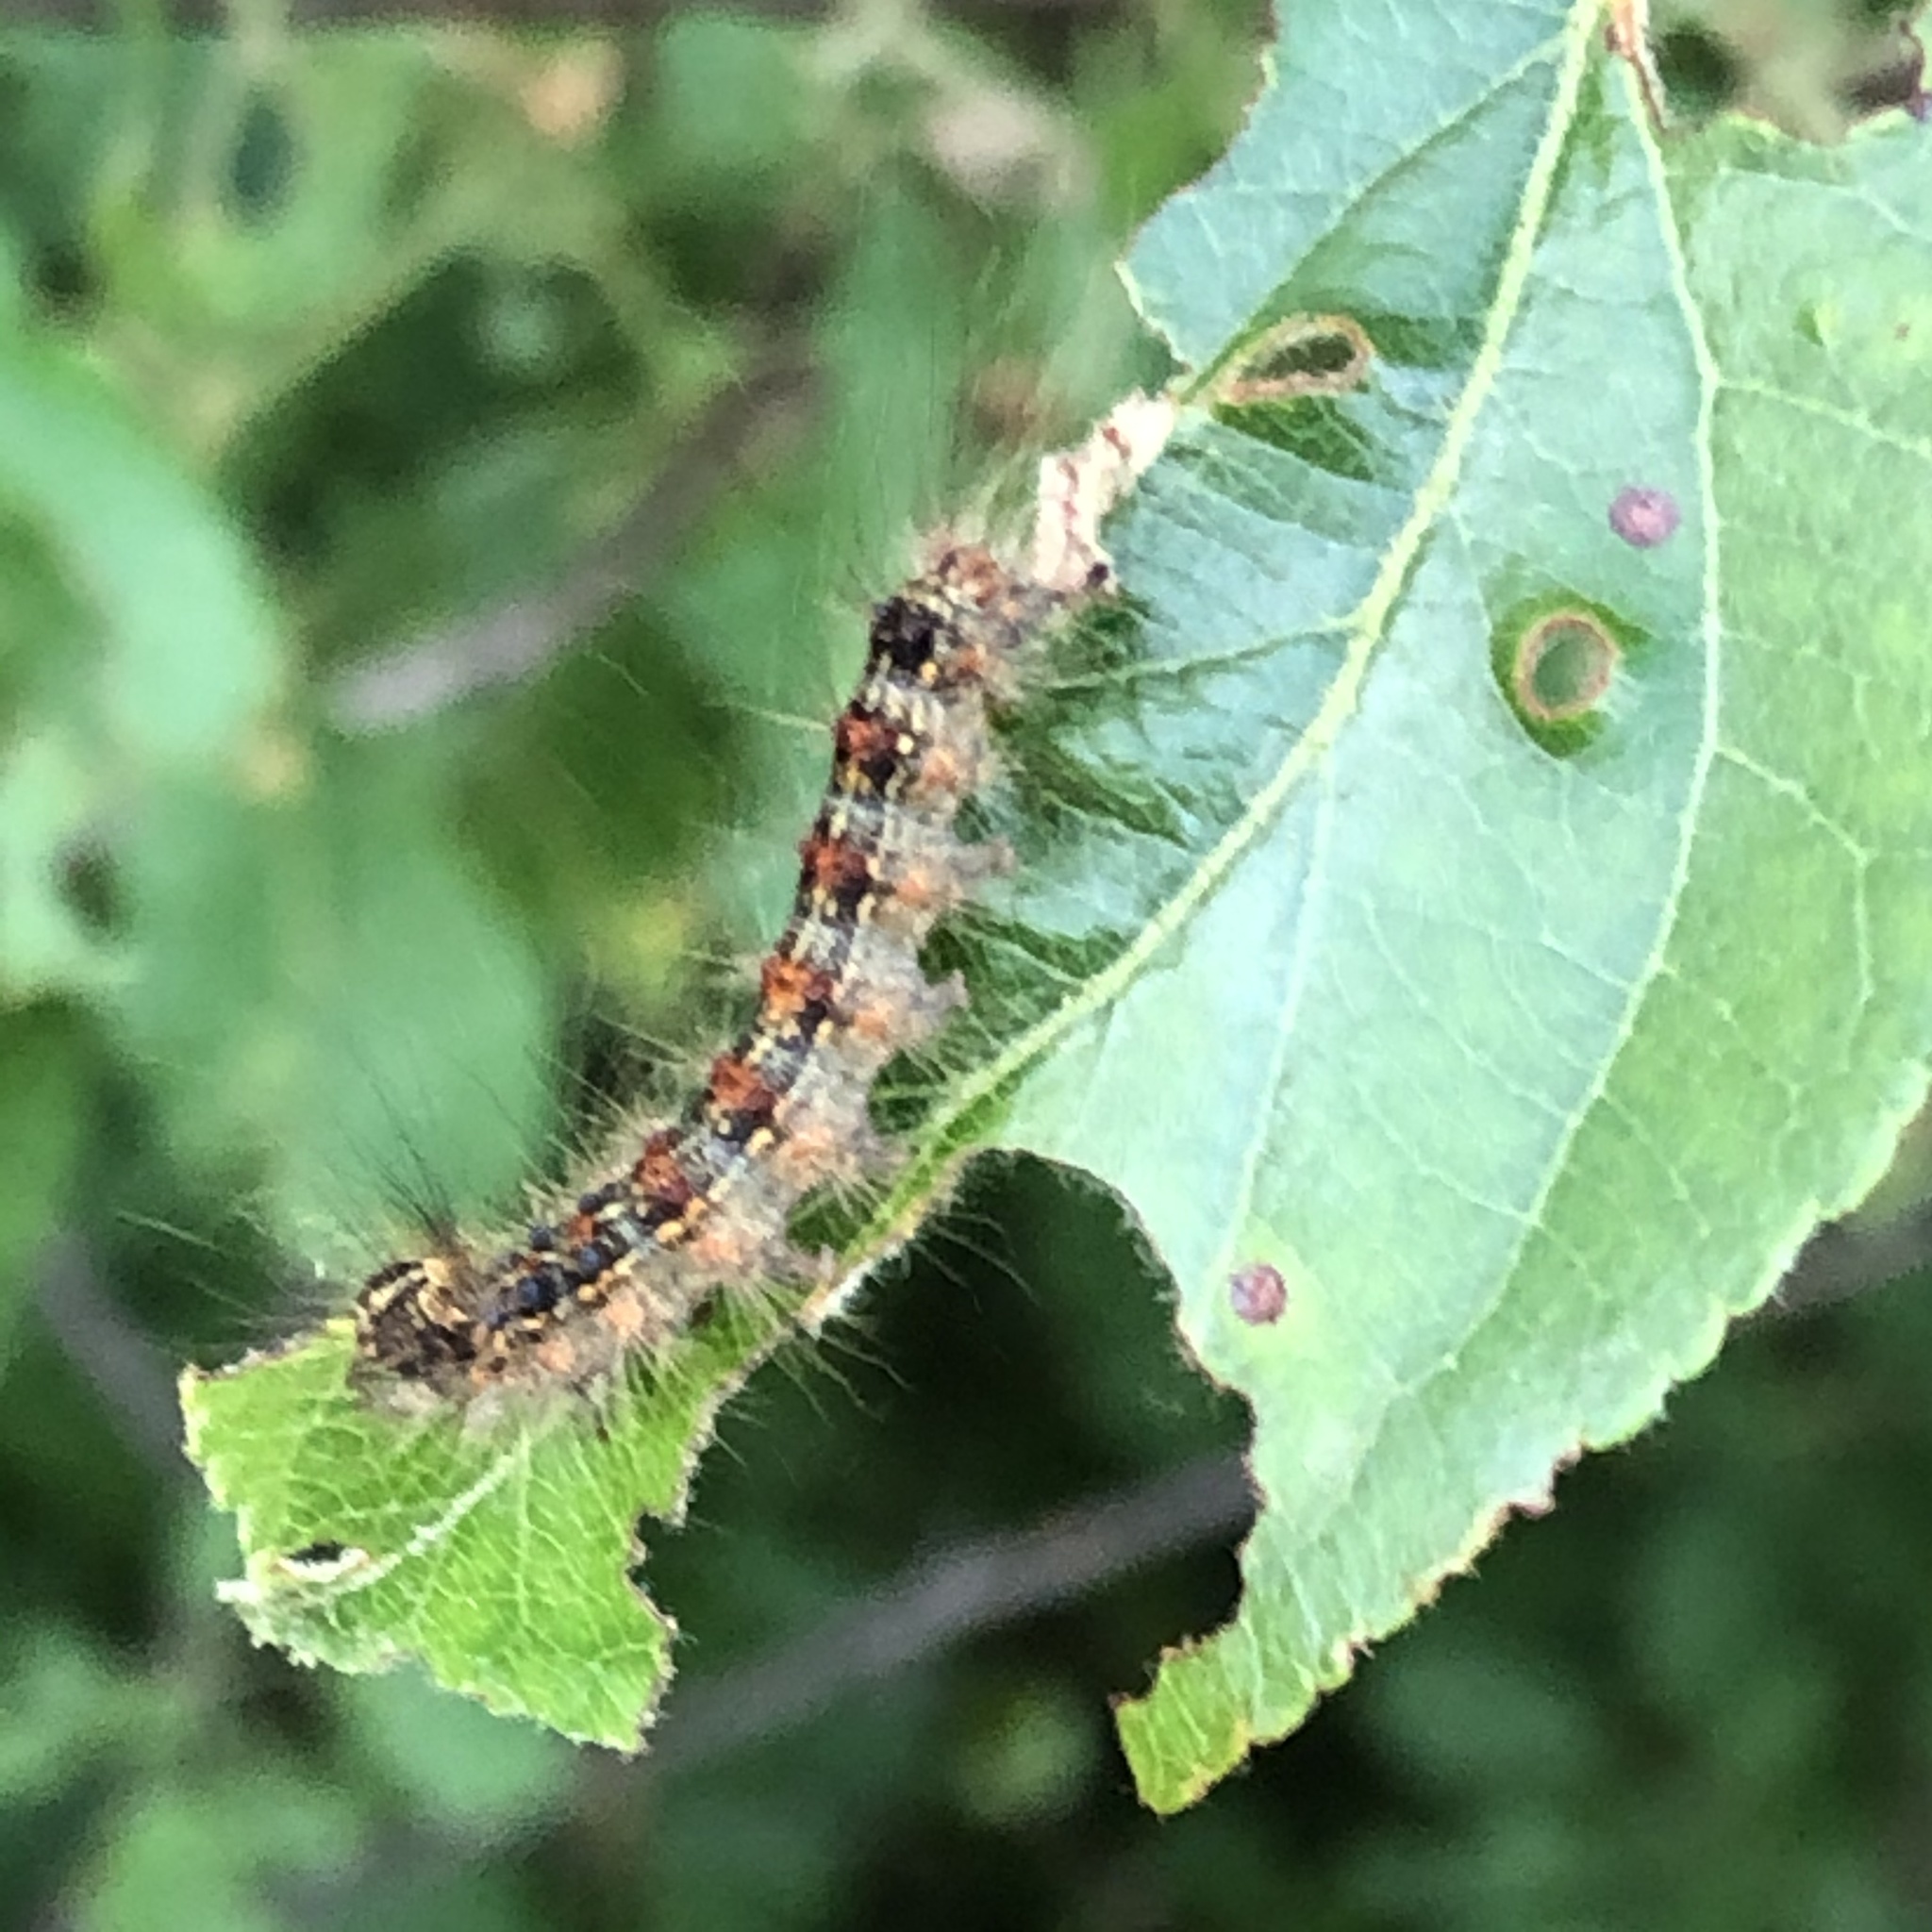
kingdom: Animalia
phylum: Arthropoda
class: Insecta
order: Lepidoptera
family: Erebidae
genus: Lymantria
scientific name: Lymantria dispar
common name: Gypsy moth
